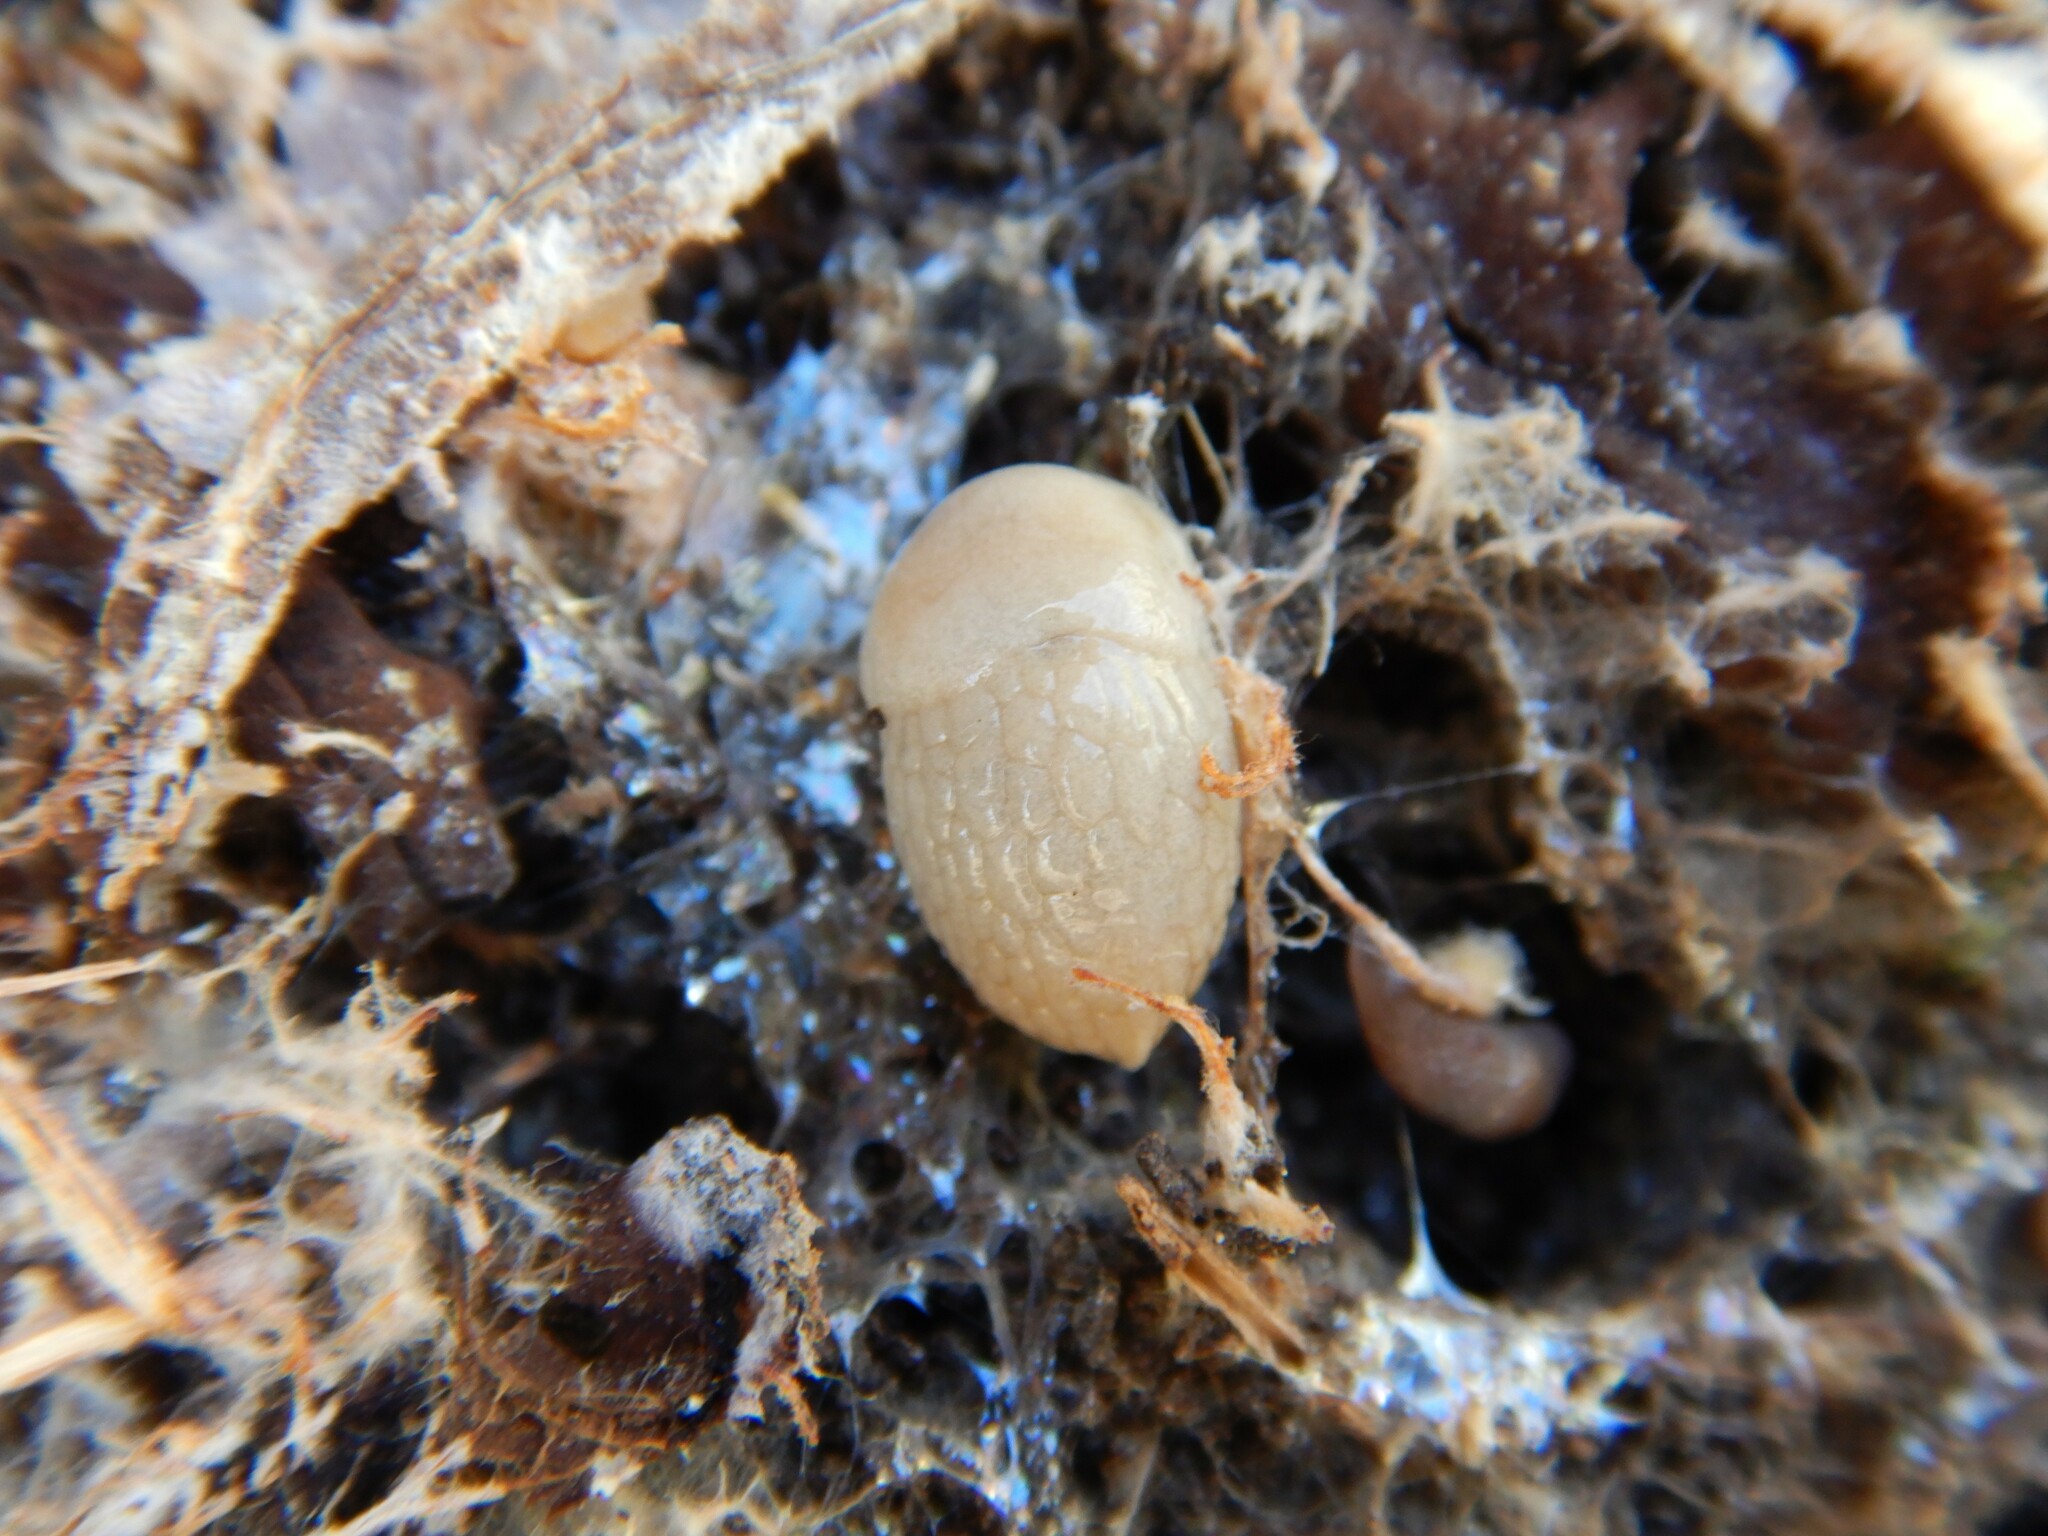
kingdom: Animalia
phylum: Mollusca
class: Gastropoda
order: Stylommatophora
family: Agriolimacidae
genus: Deroceras
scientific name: Deroceras reticulatum
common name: Gray field slug
